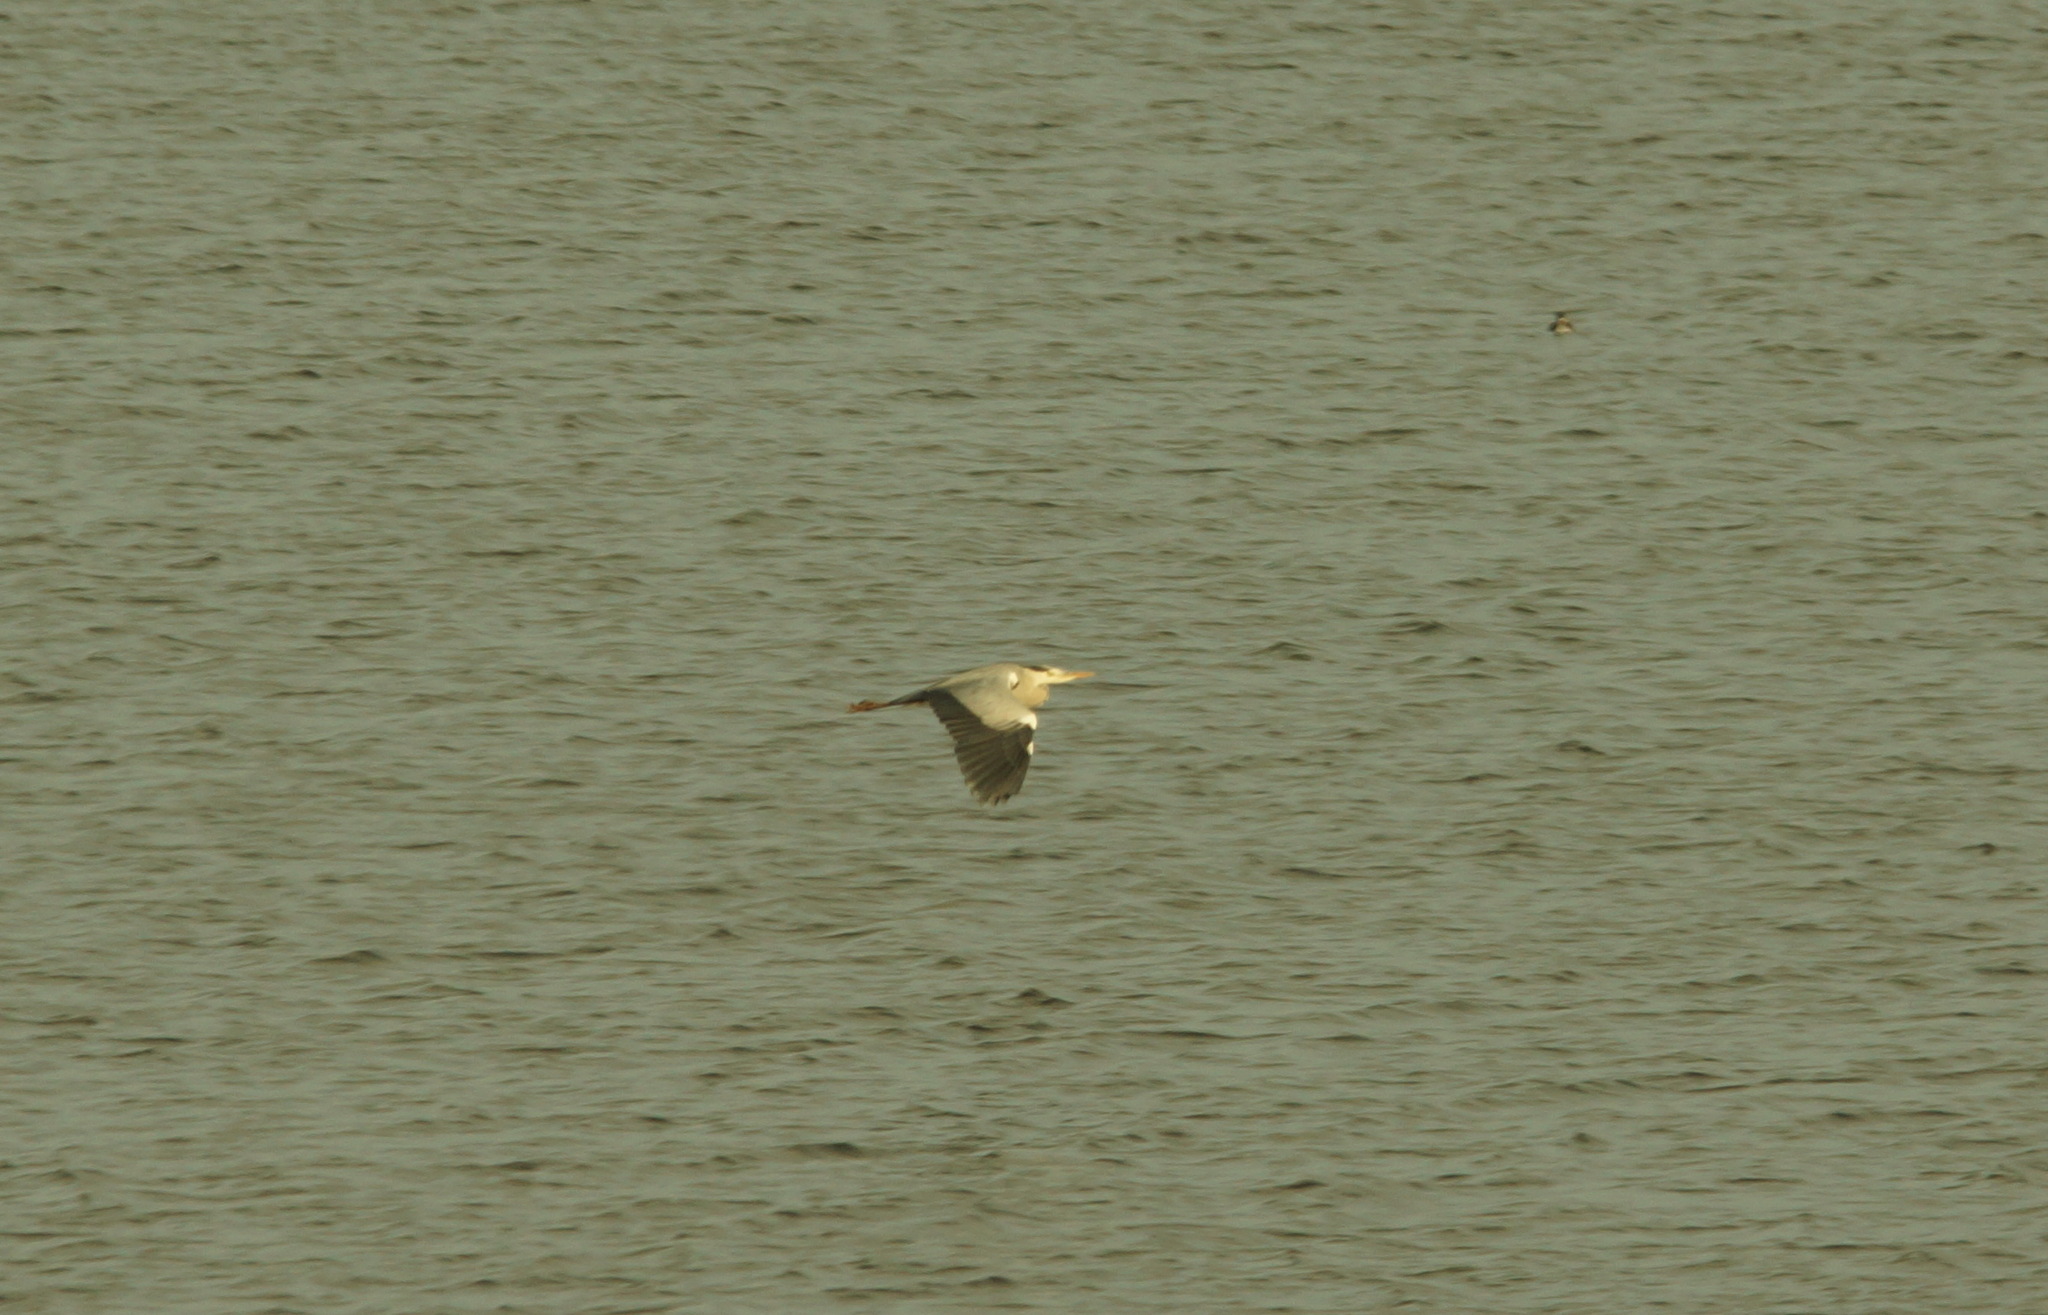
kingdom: Animalia
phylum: Chordata
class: Aves
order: Pelecaniformes
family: Ardeidae
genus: Ardea
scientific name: Ardea cinerea
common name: Grey heron
